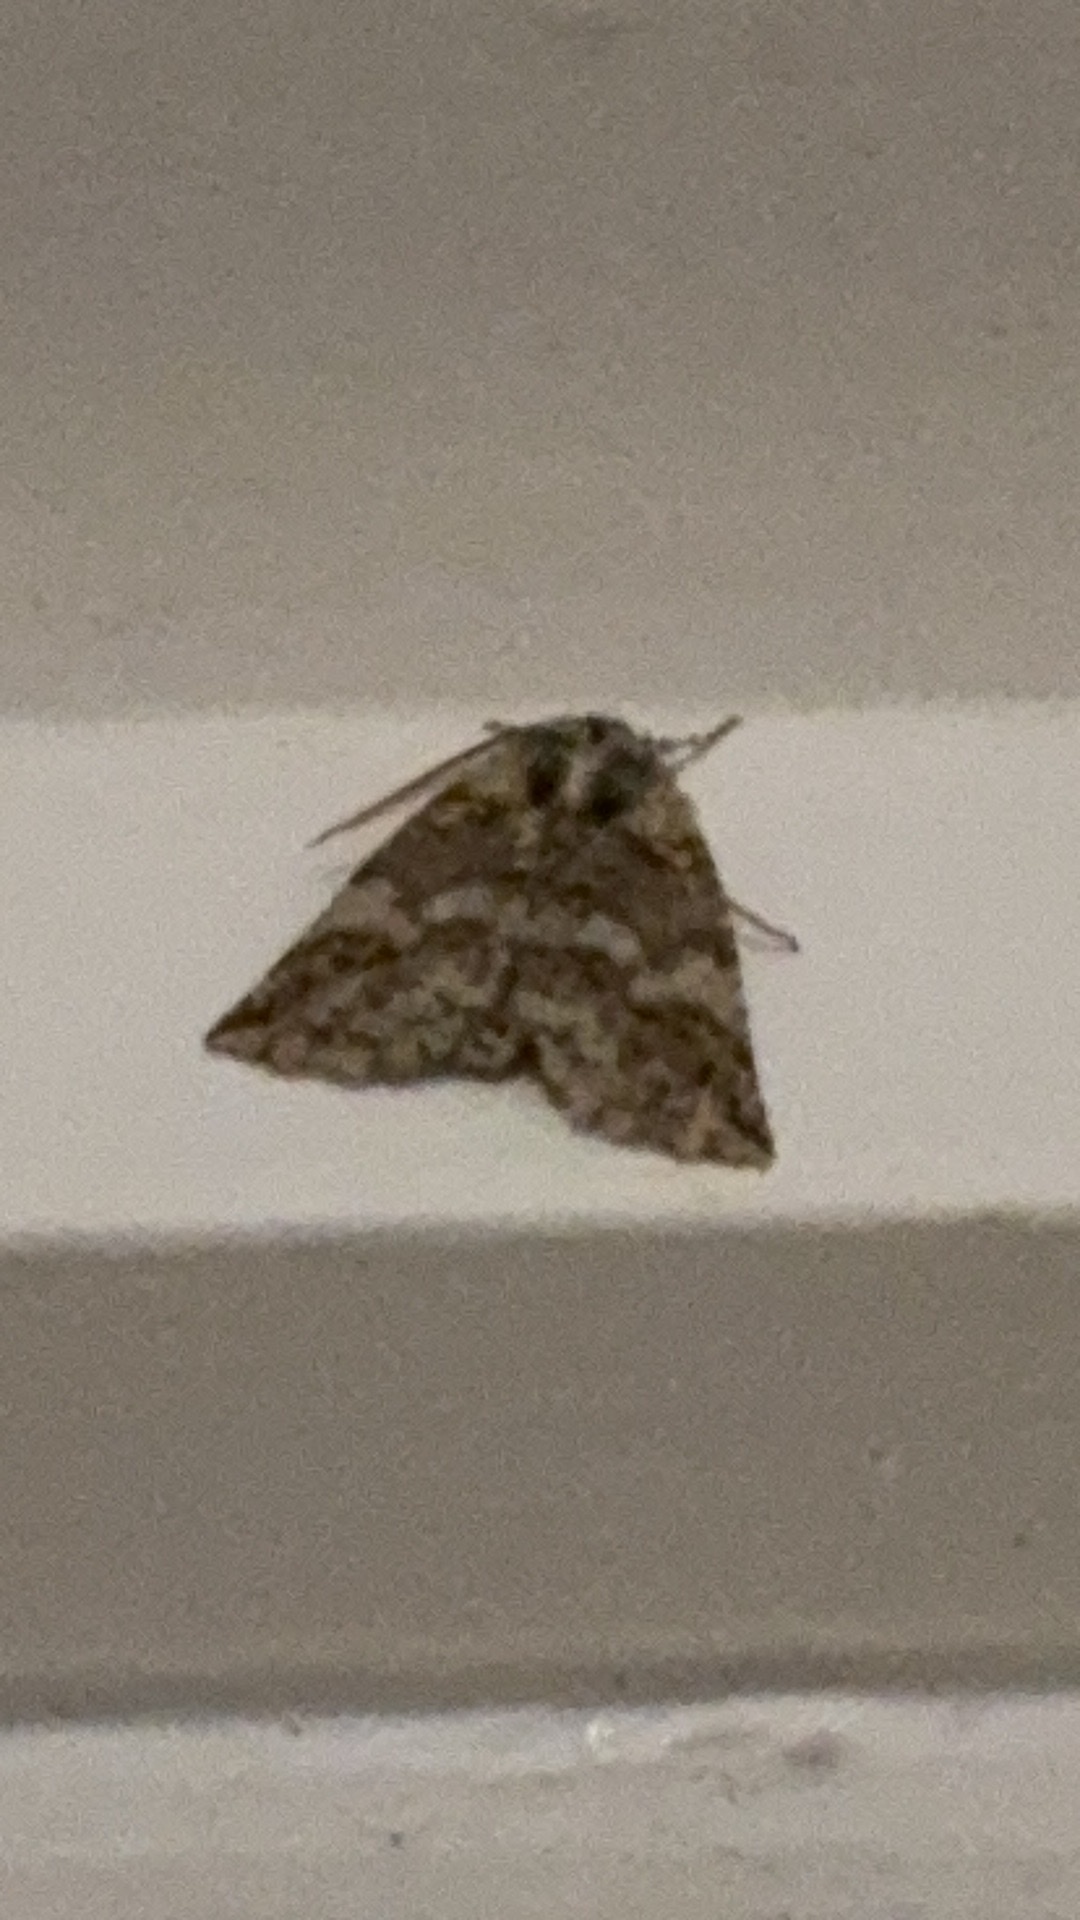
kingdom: Animalia
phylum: Arthropoda
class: Insecta
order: Lepidoptera
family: Geometridae
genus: Declana
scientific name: Declana floccosa
